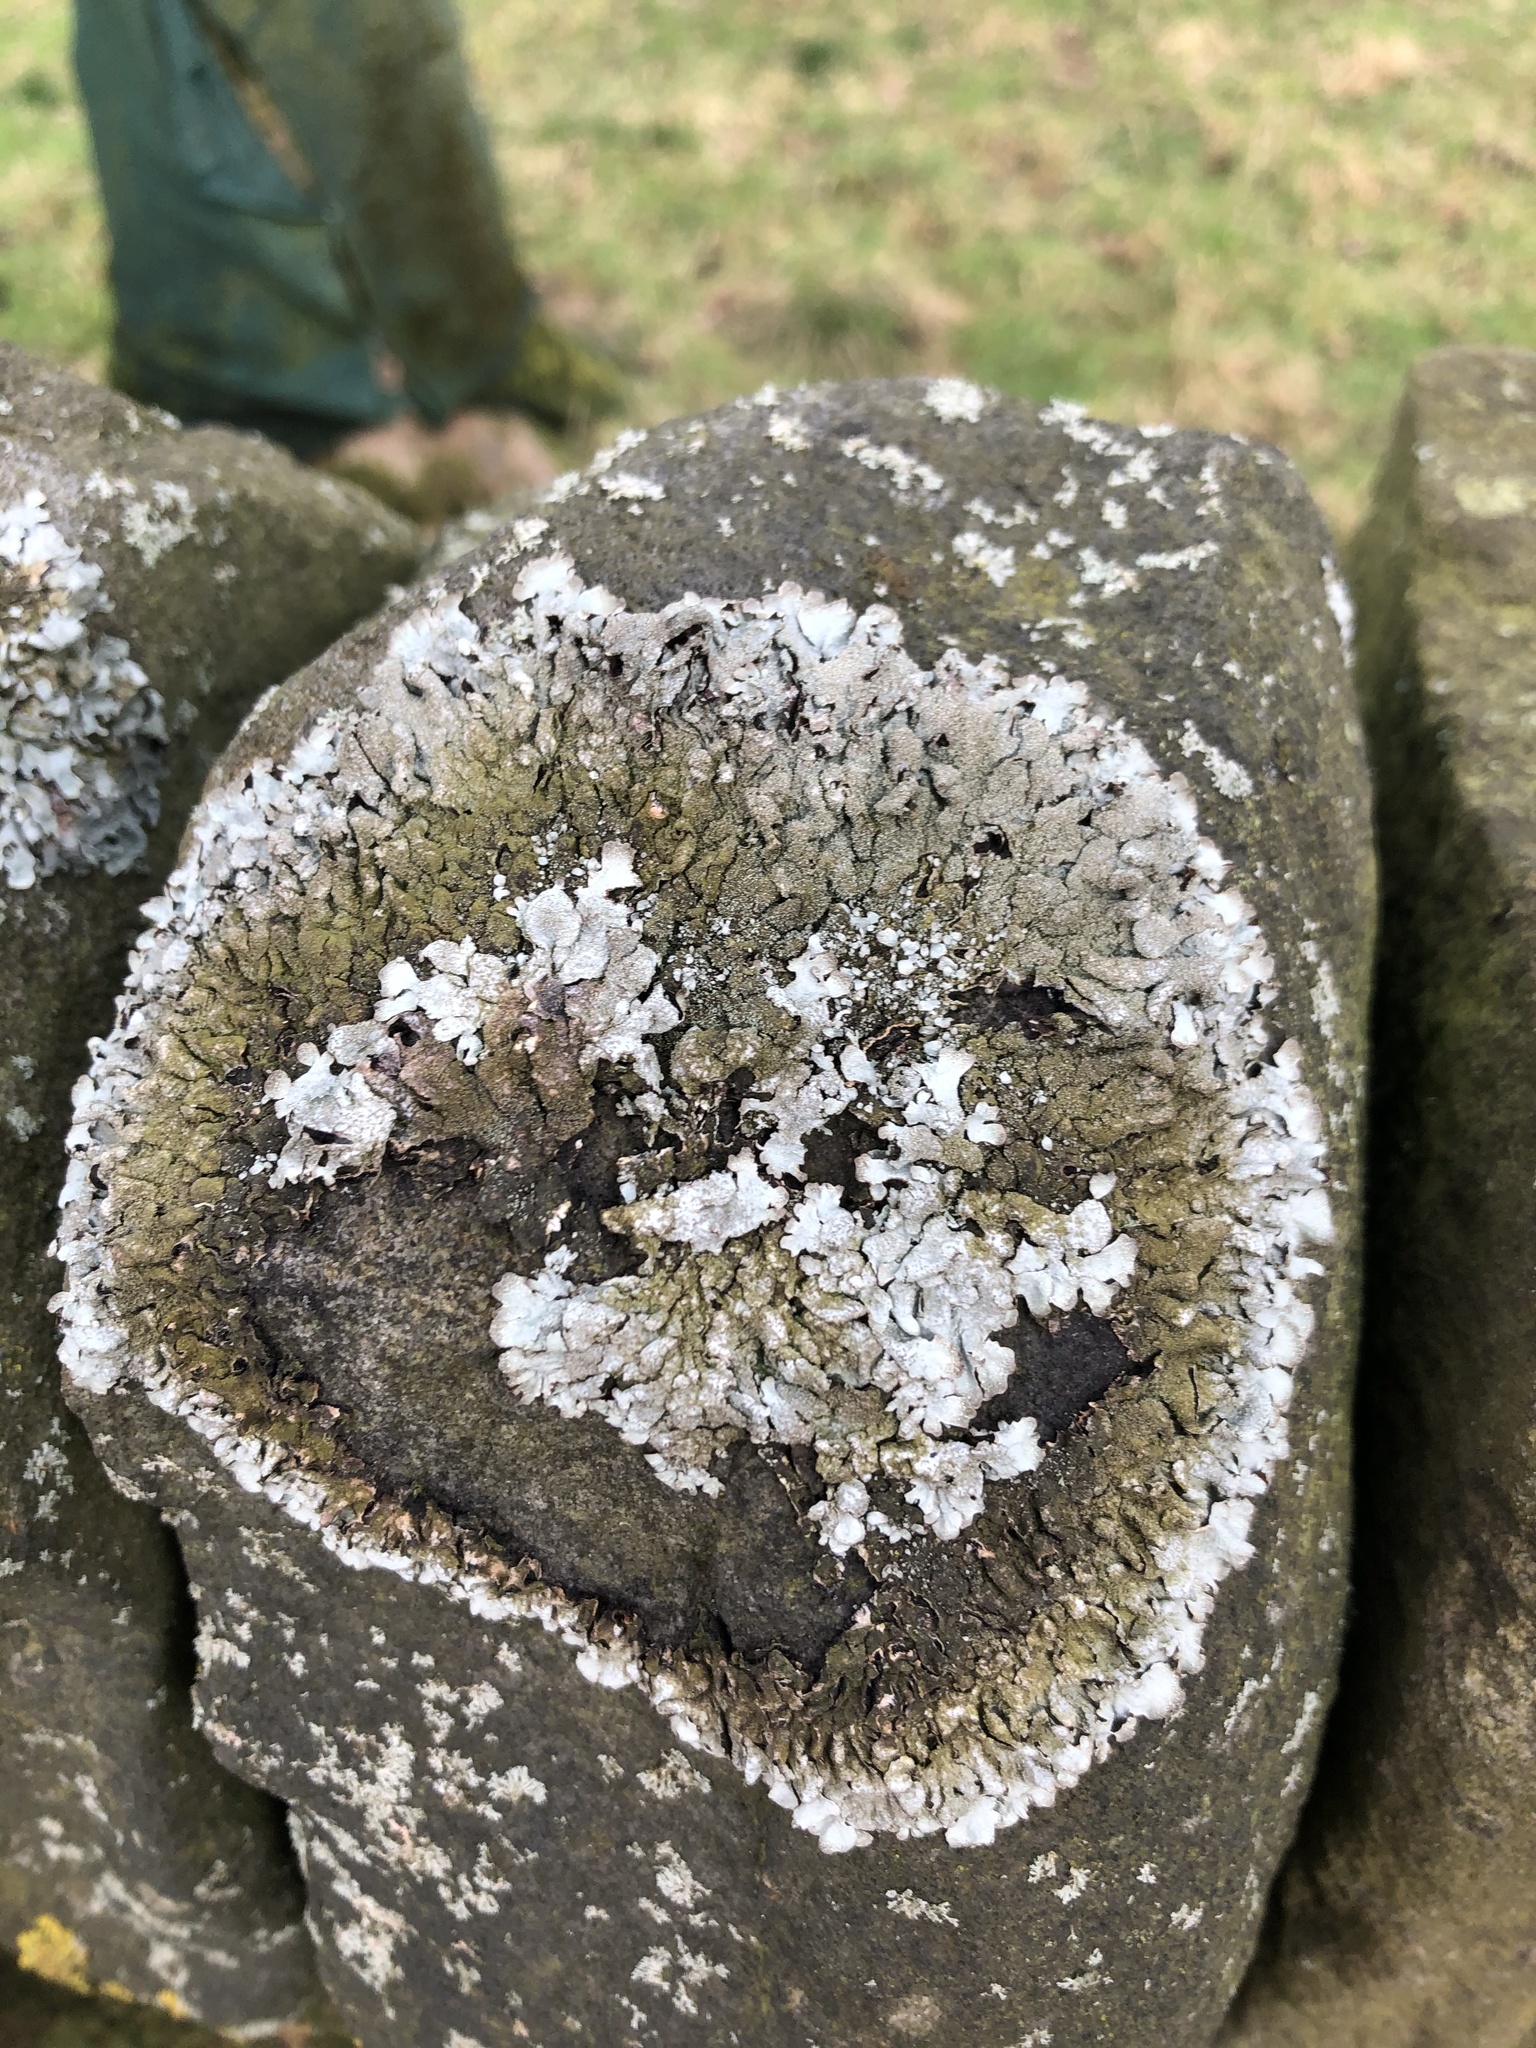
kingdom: Fungi
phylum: Ascomycota
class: Lecanoromycetes
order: Lecanorales
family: Parmeliaceae
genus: Parmelia
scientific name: Parmelia saxatilis
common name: Salted shield lichen
